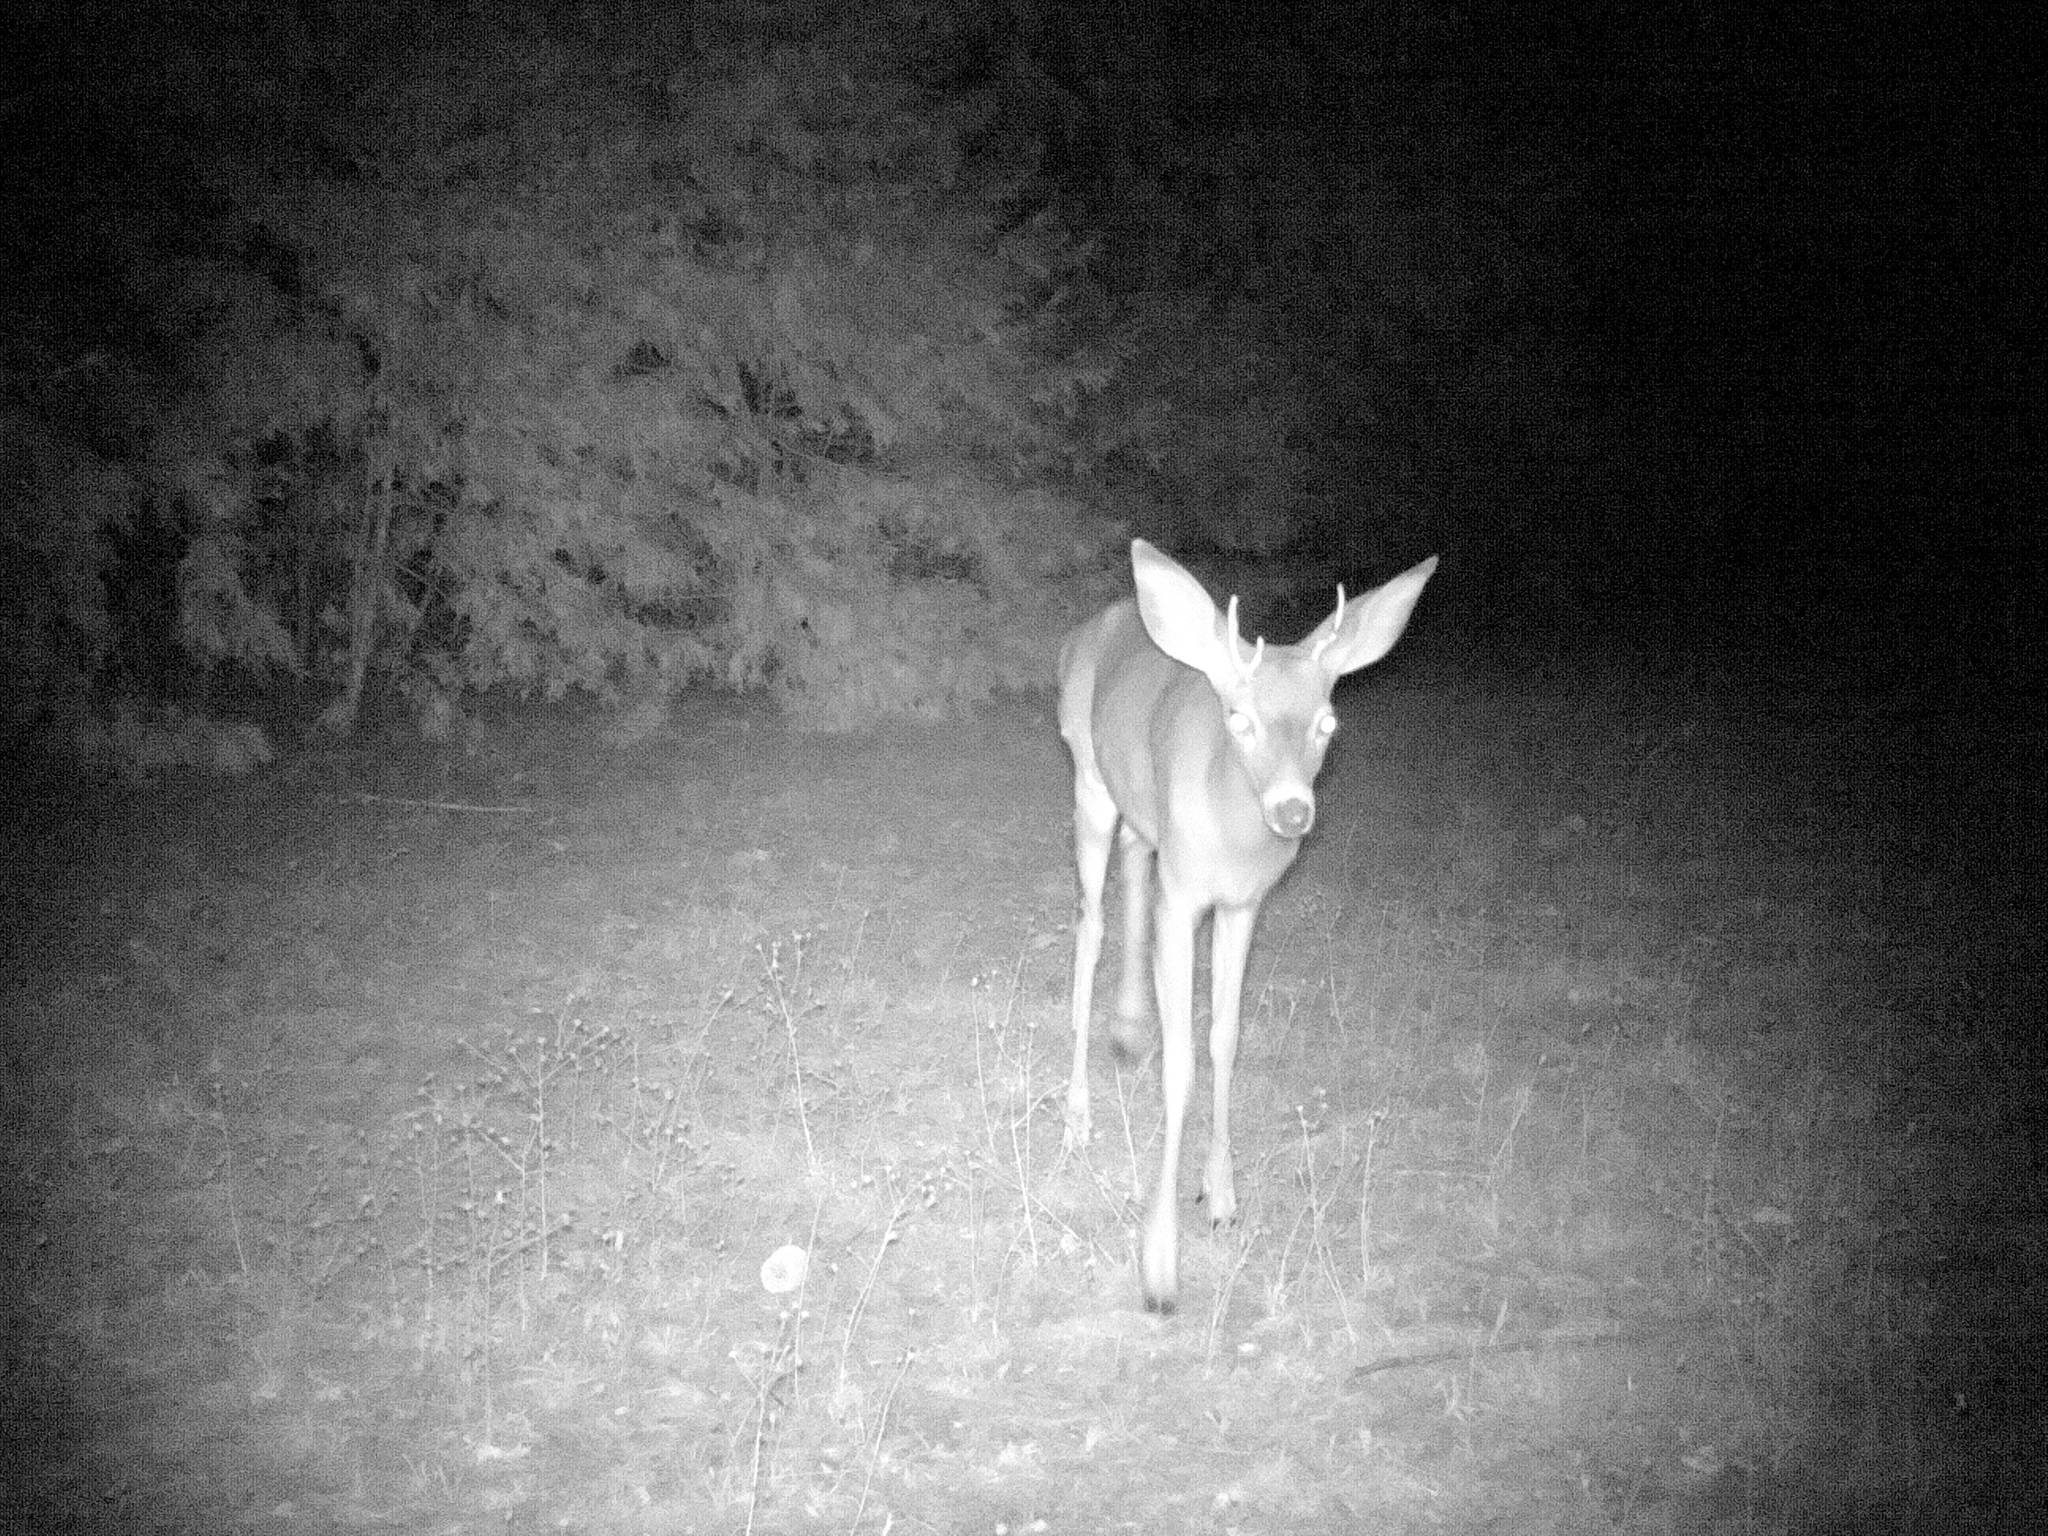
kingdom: Animalia
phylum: Chordata
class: Mammalia
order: Artiodactyla
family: Cervidae
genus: Odocoileus
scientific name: Odocoileus hemionus
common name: Mule deer
